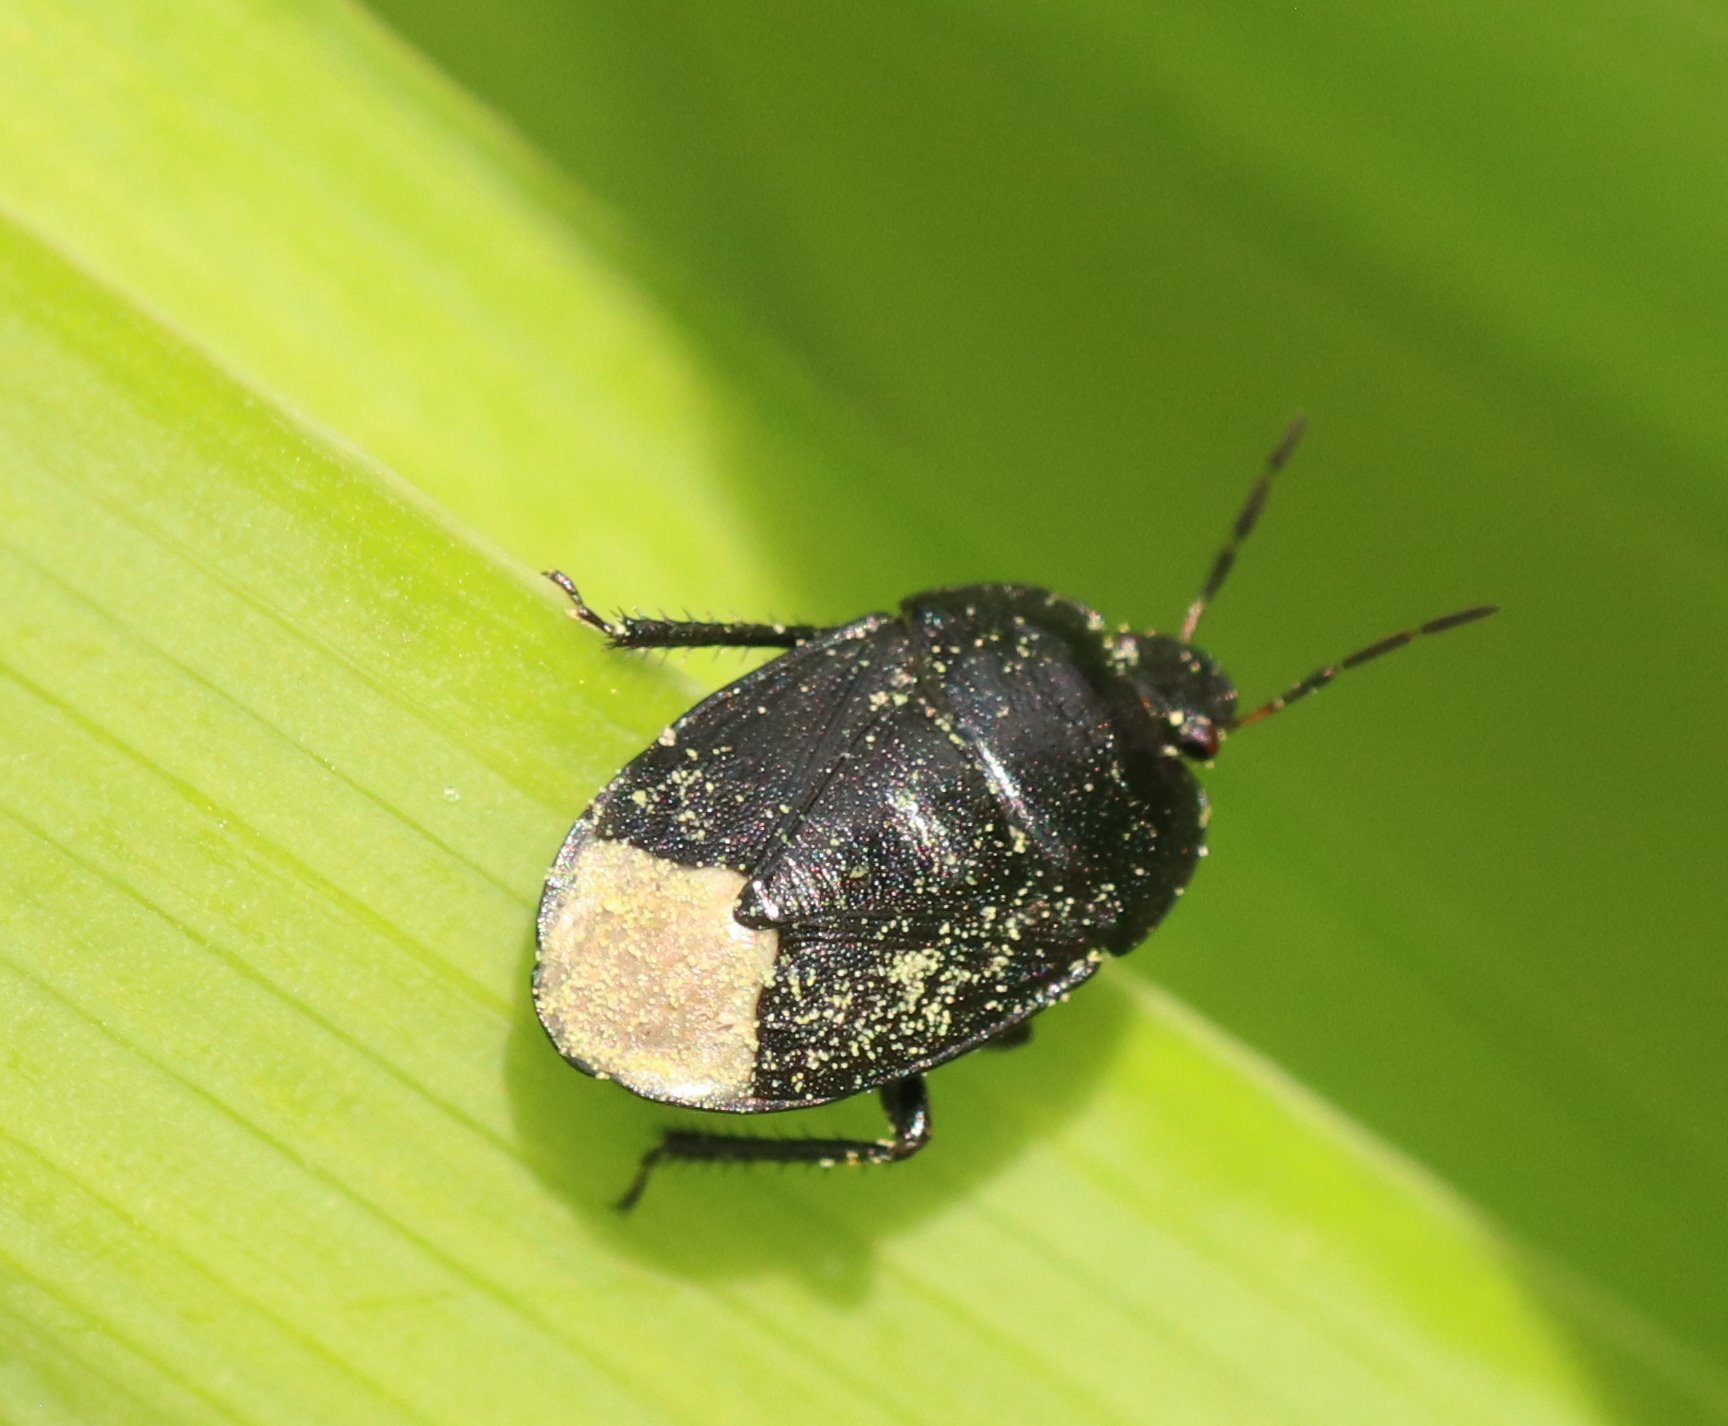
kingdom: Animalia
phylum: Arthropoda
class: Insecta
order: Hemiptera
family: Cydnidae
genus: Sehirus
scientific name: Sehirus morio
